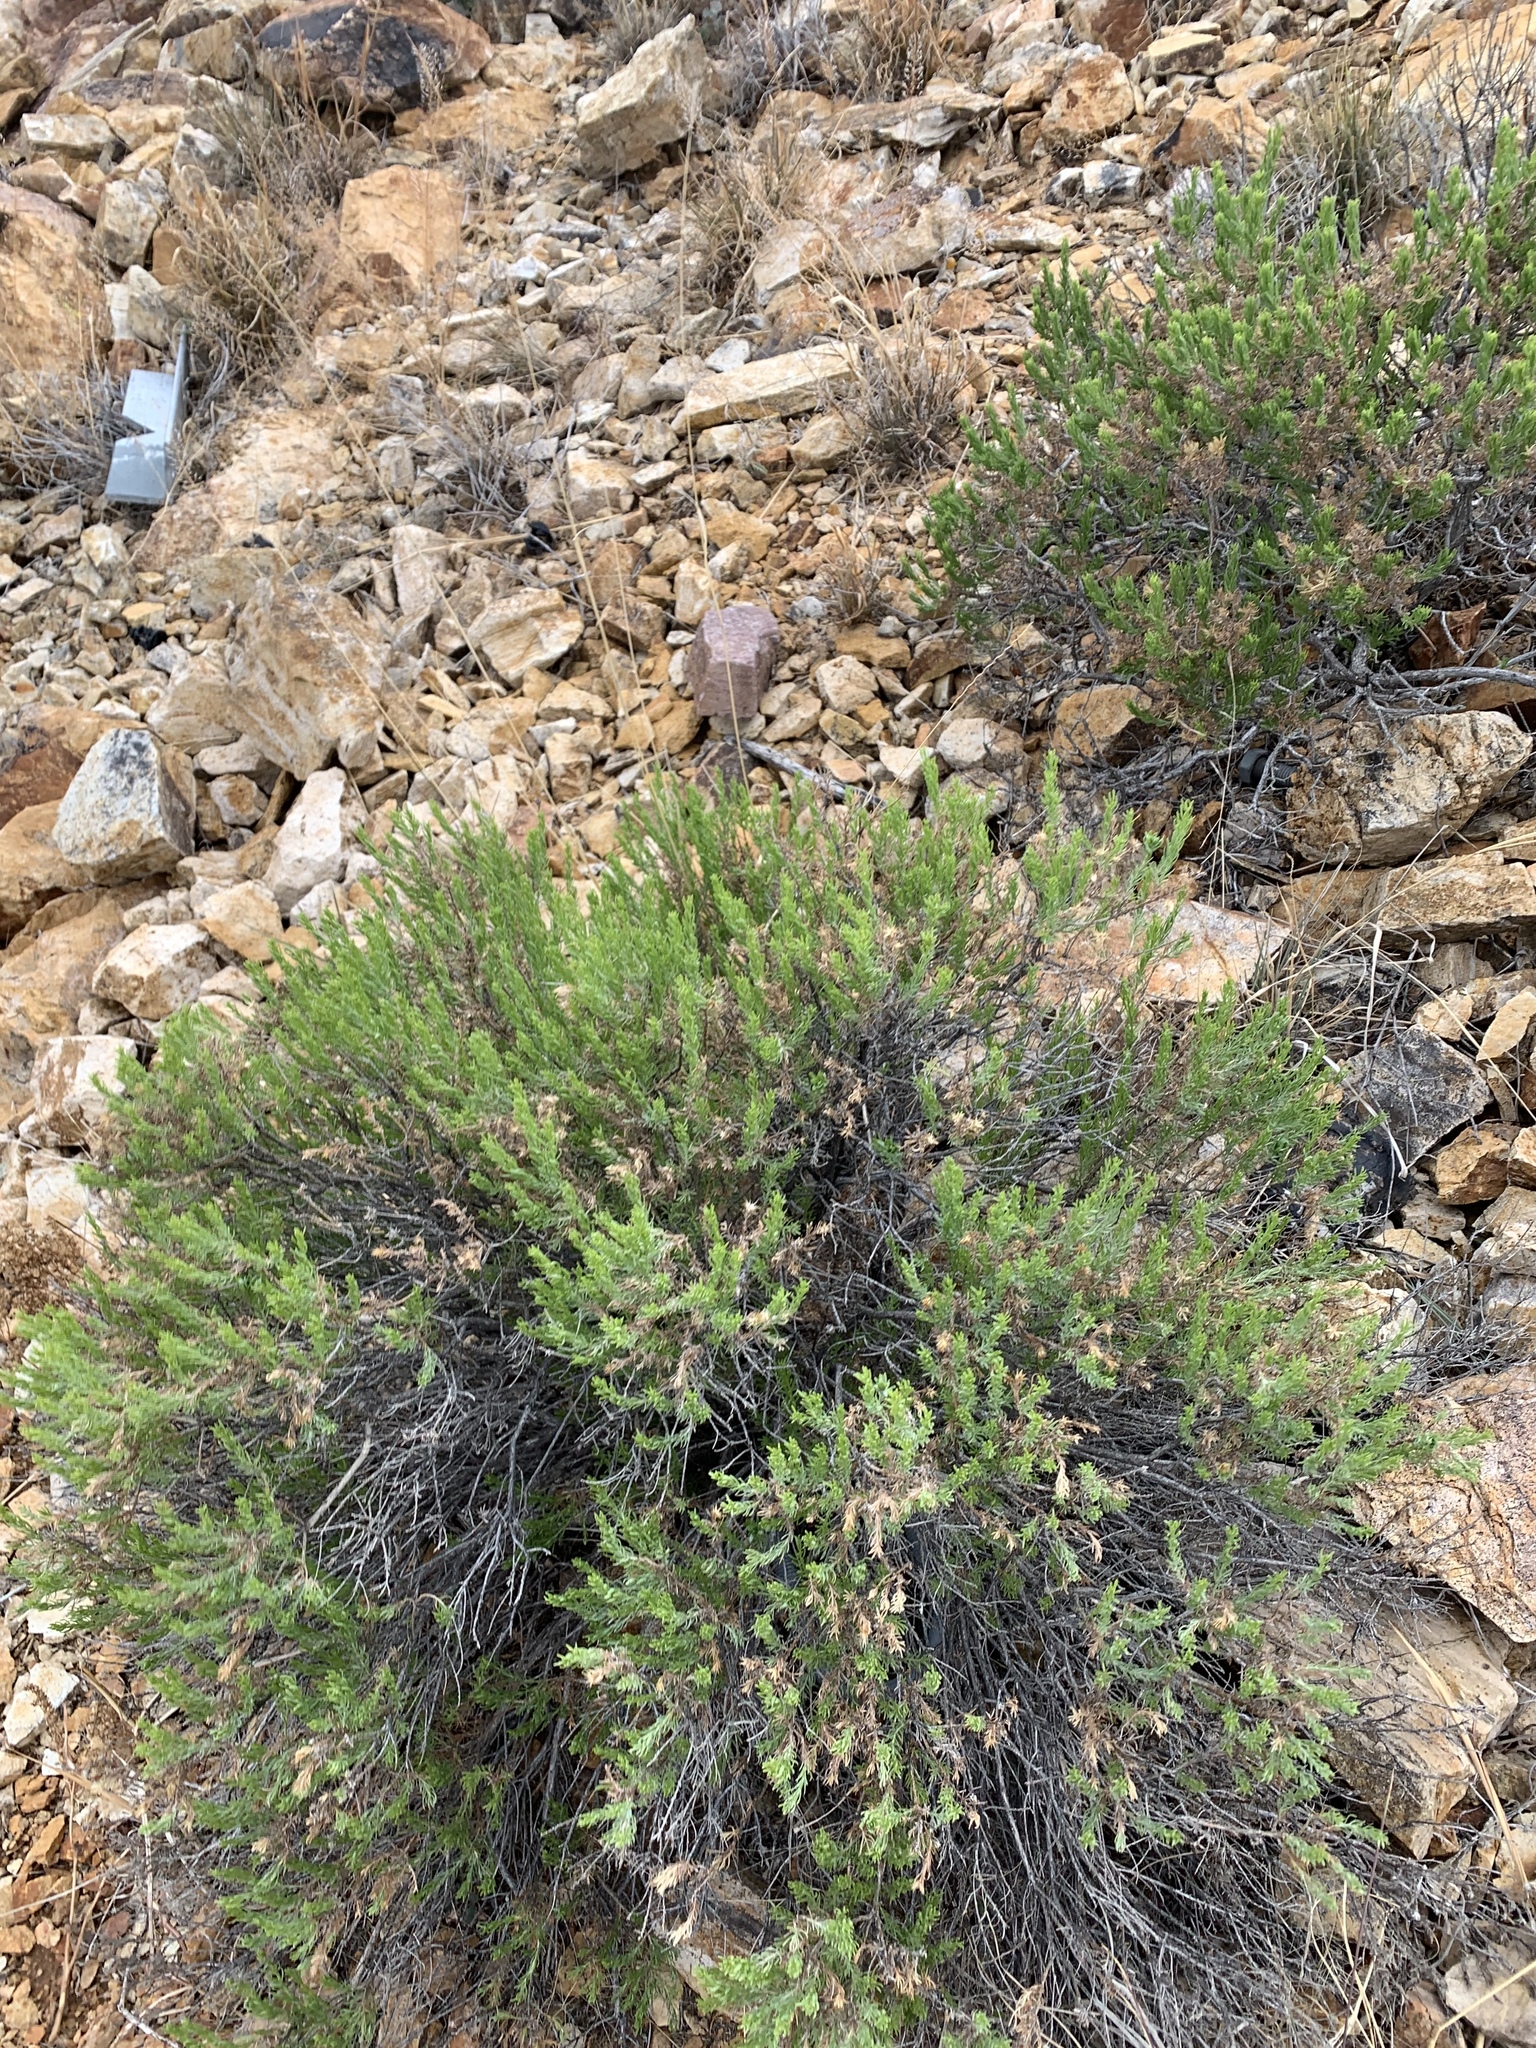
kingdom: Plantae
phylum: Tracheophyta
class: Magnoliopsida
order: Asterales
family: Asteraceae
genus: Peucephyllum
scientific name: Peucephyllum schottii
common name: Pygmy-cedar
